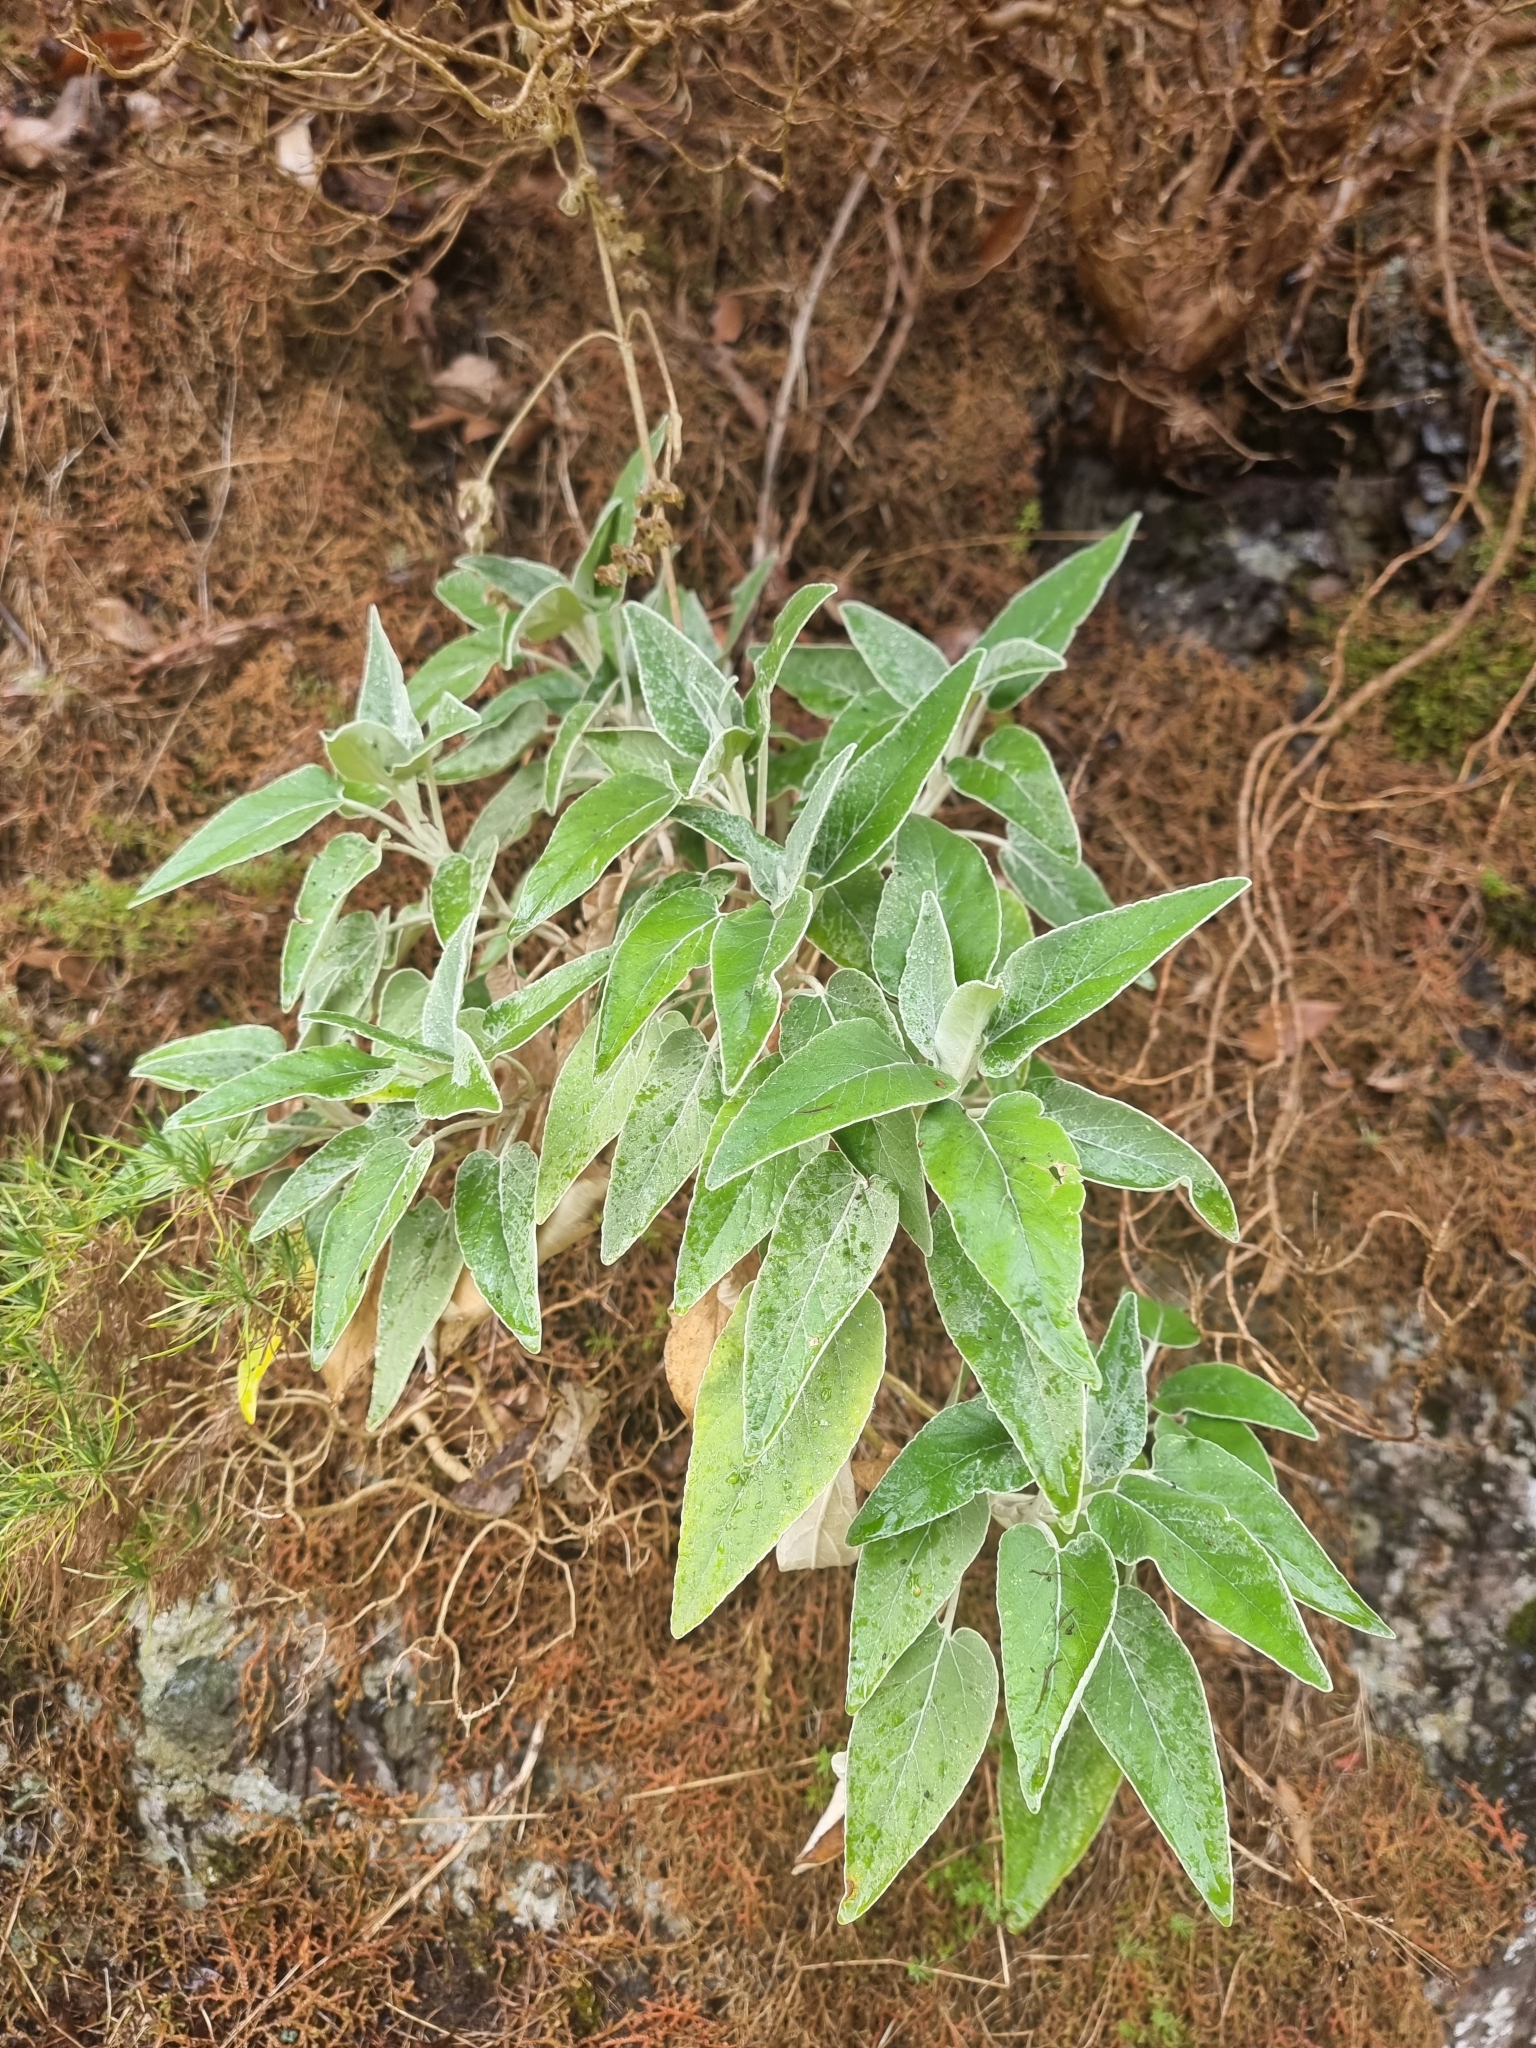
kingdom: Plantae
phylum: Tracheophyta
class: Magnoliopsida
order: Lamiales
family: Lamiaceae
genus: Sideritis
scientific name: Sideritis candicans
